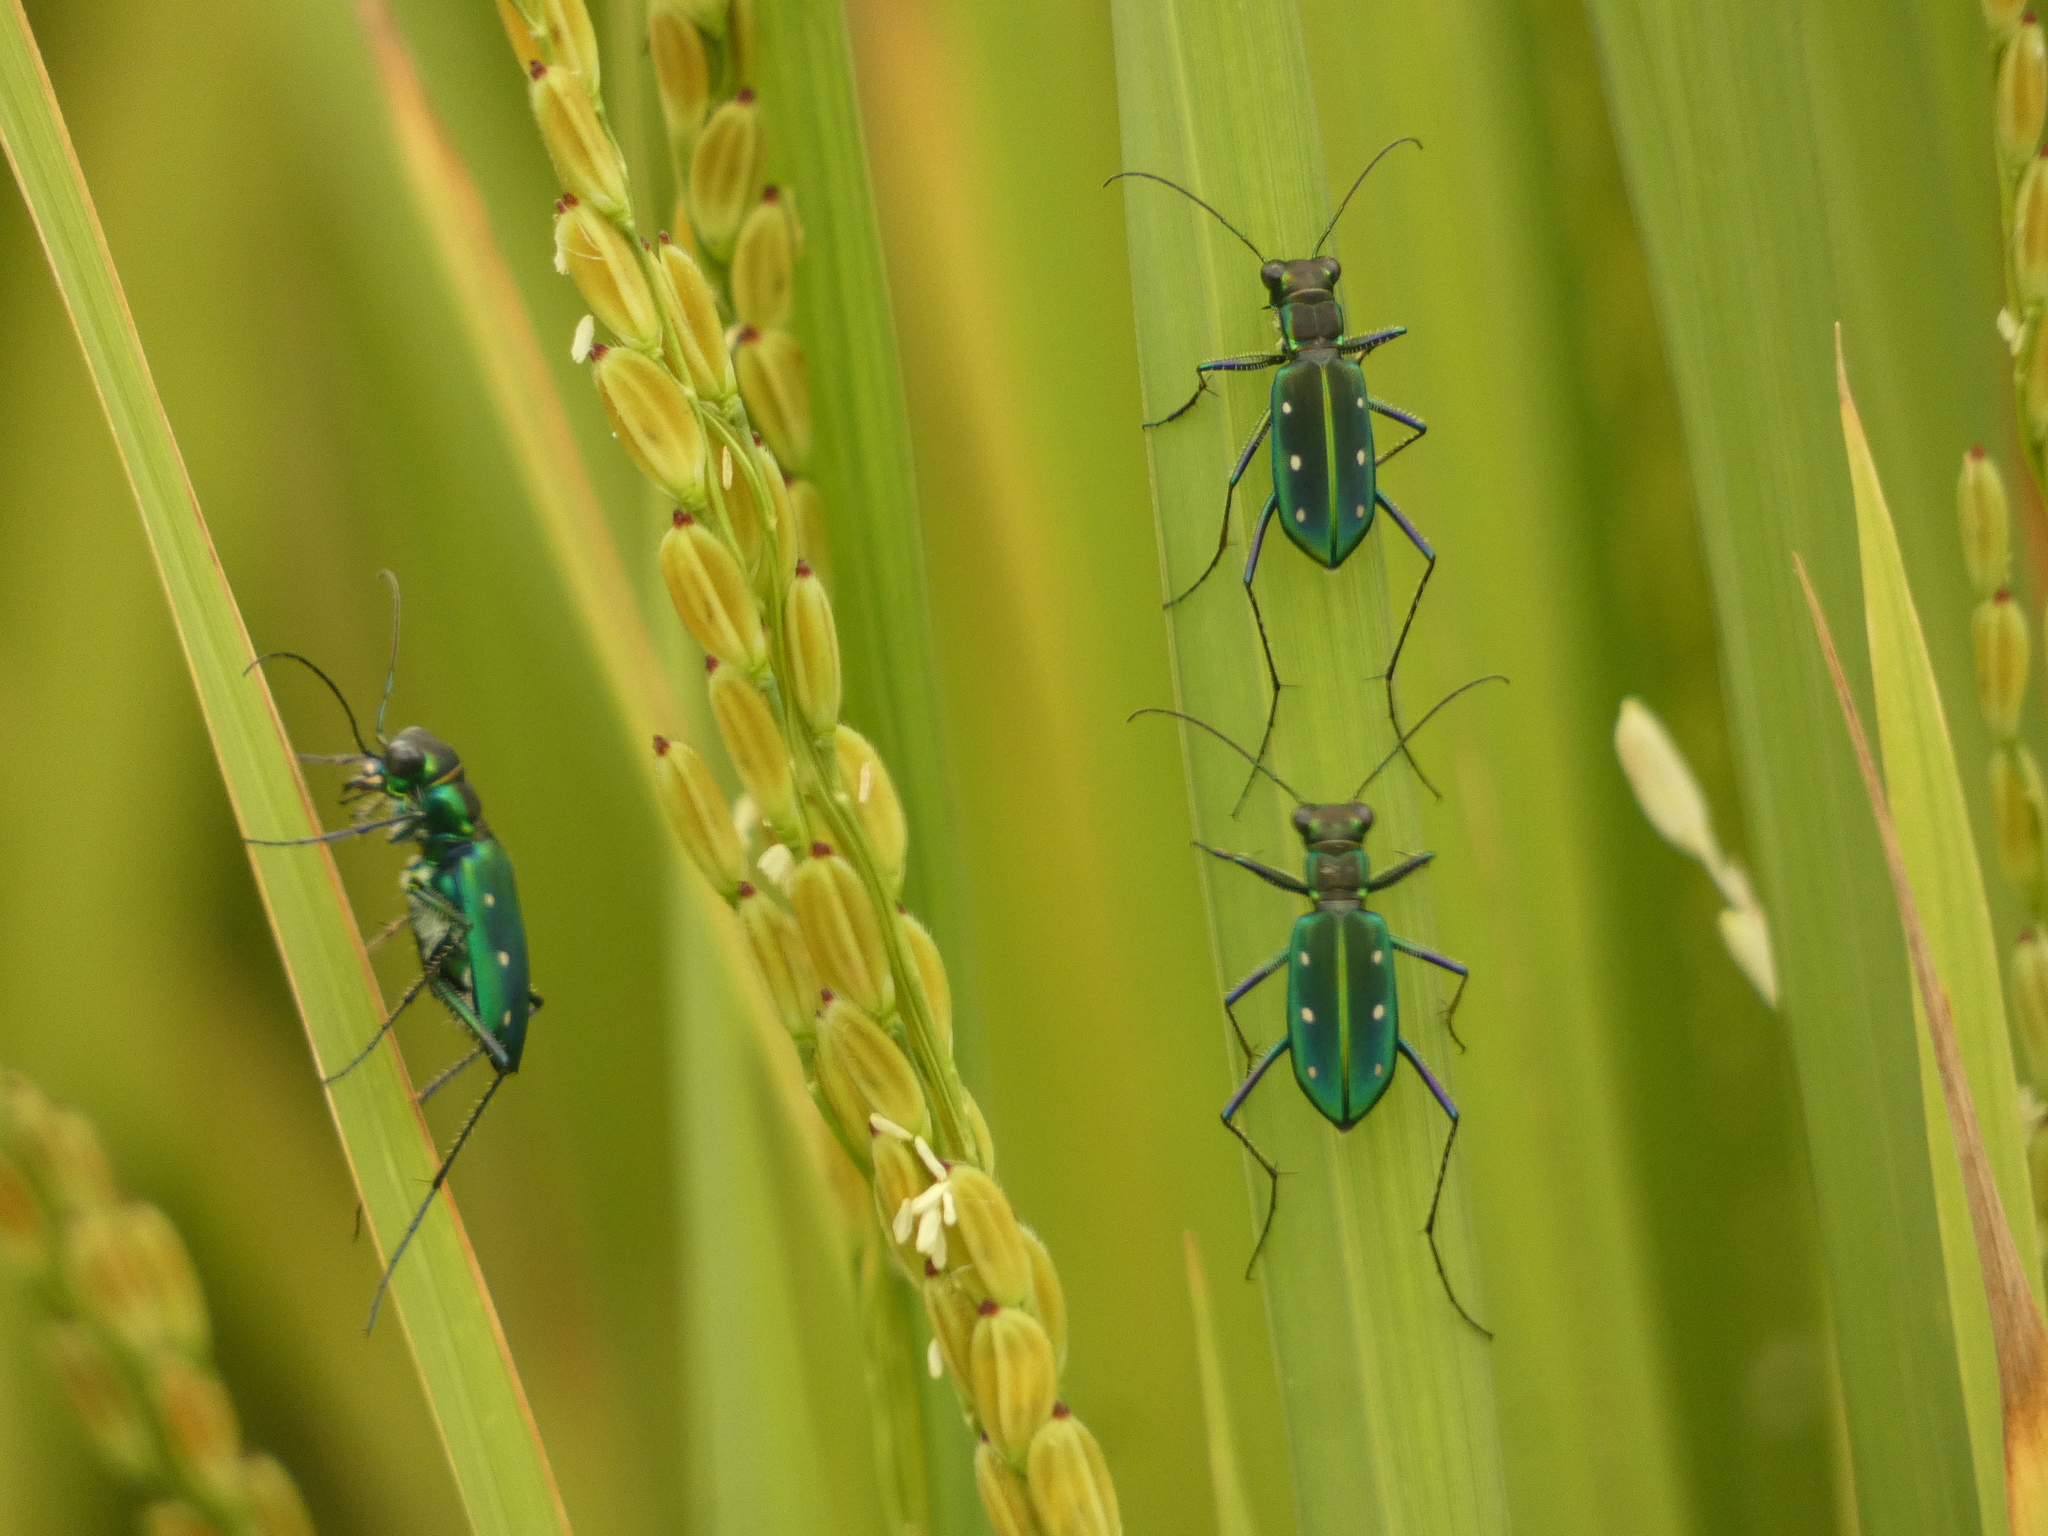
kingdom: Animalia
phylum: Arthropoda
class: Insecta
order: Coleoptera
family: Carabidae
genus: Cicindela
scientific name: Cicindela flavomaculata
